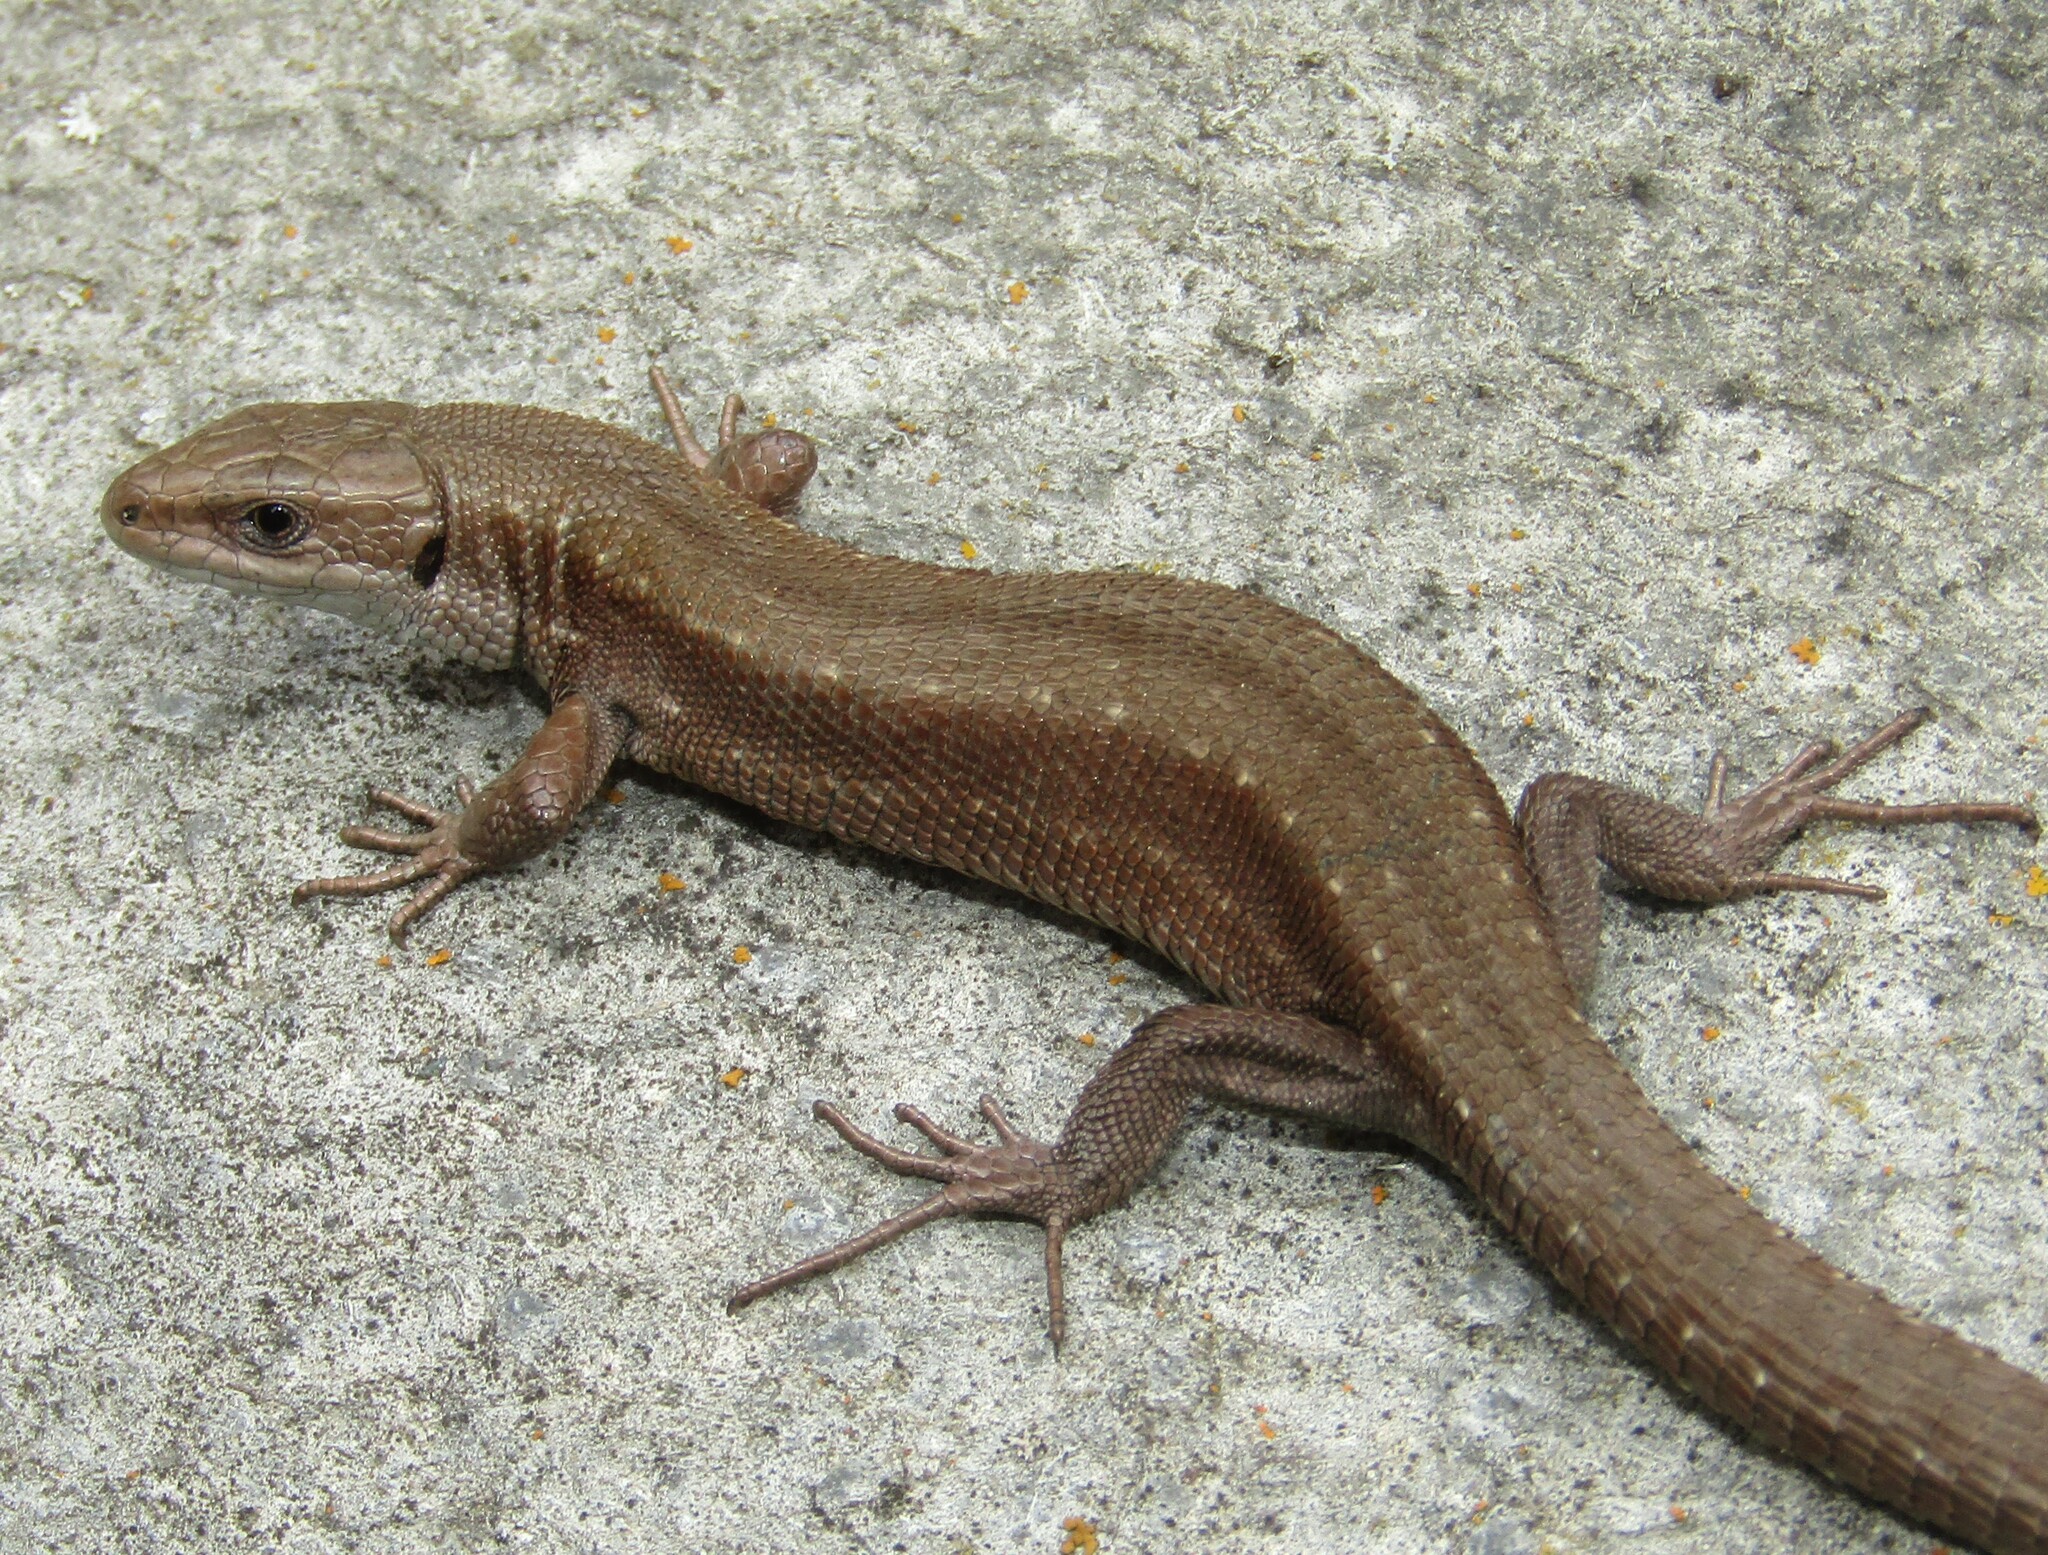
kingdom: Animalia
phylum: Chordata
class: Squamata
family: Lacertidae
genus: Zootoca
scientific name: Zootoca vivipara
